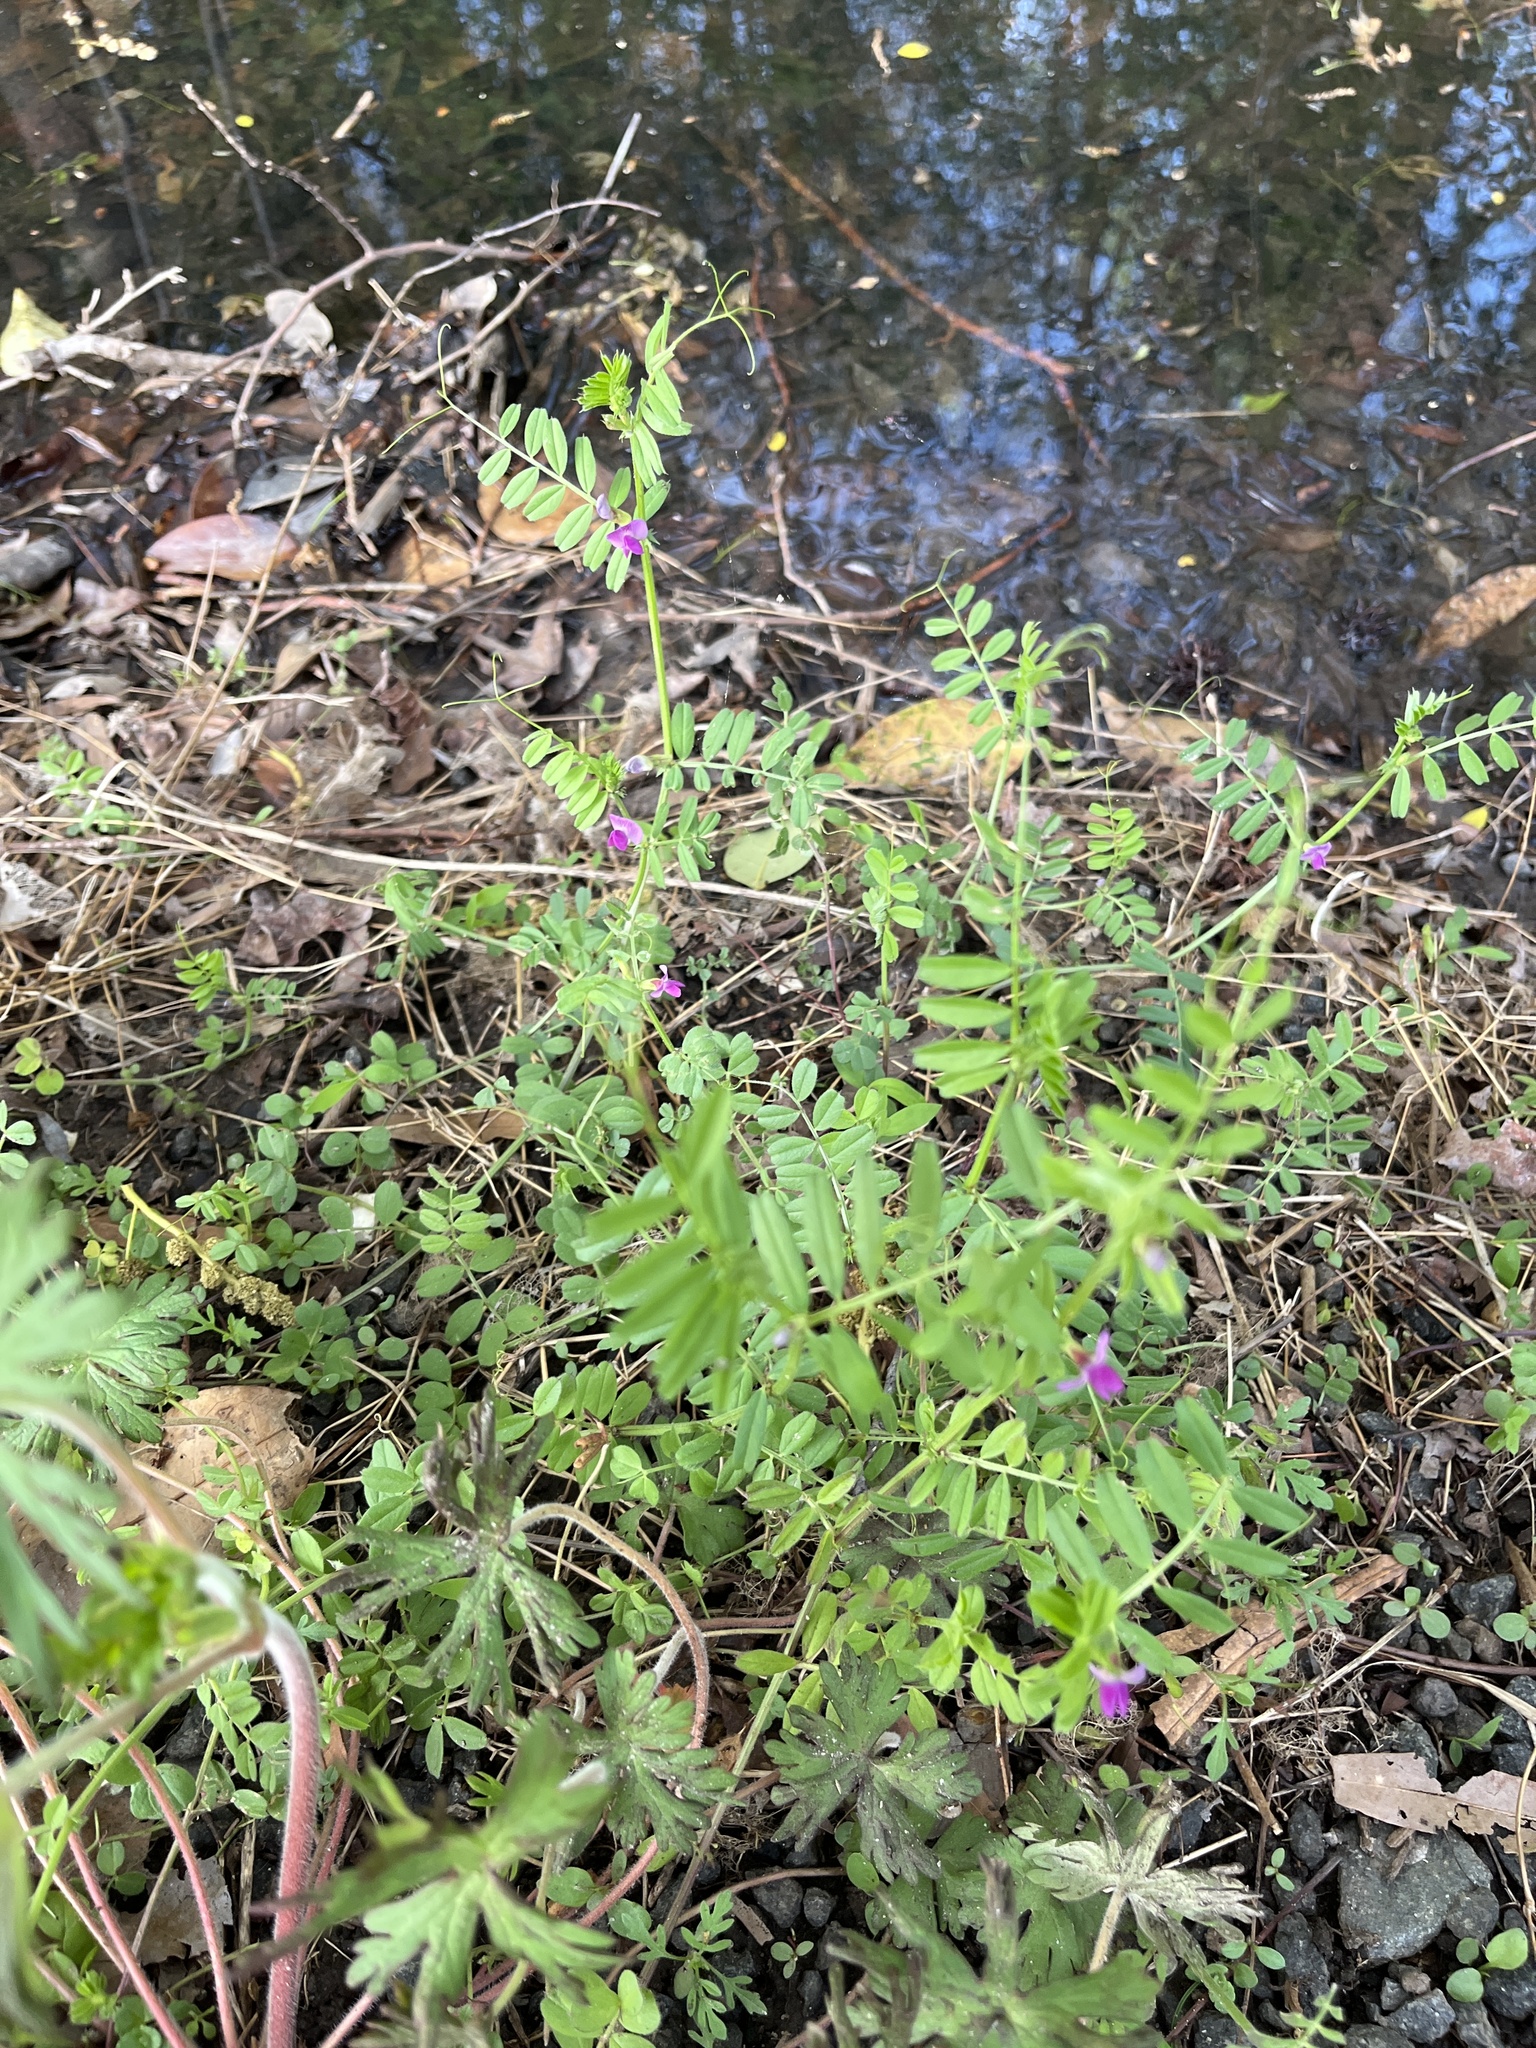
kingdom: Plantae
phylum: Tracheophyta
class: Magnoliopsida
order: Fabales
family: Fabaceae
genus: Vicia
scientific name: Vicia sativa
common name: Garden vetch
